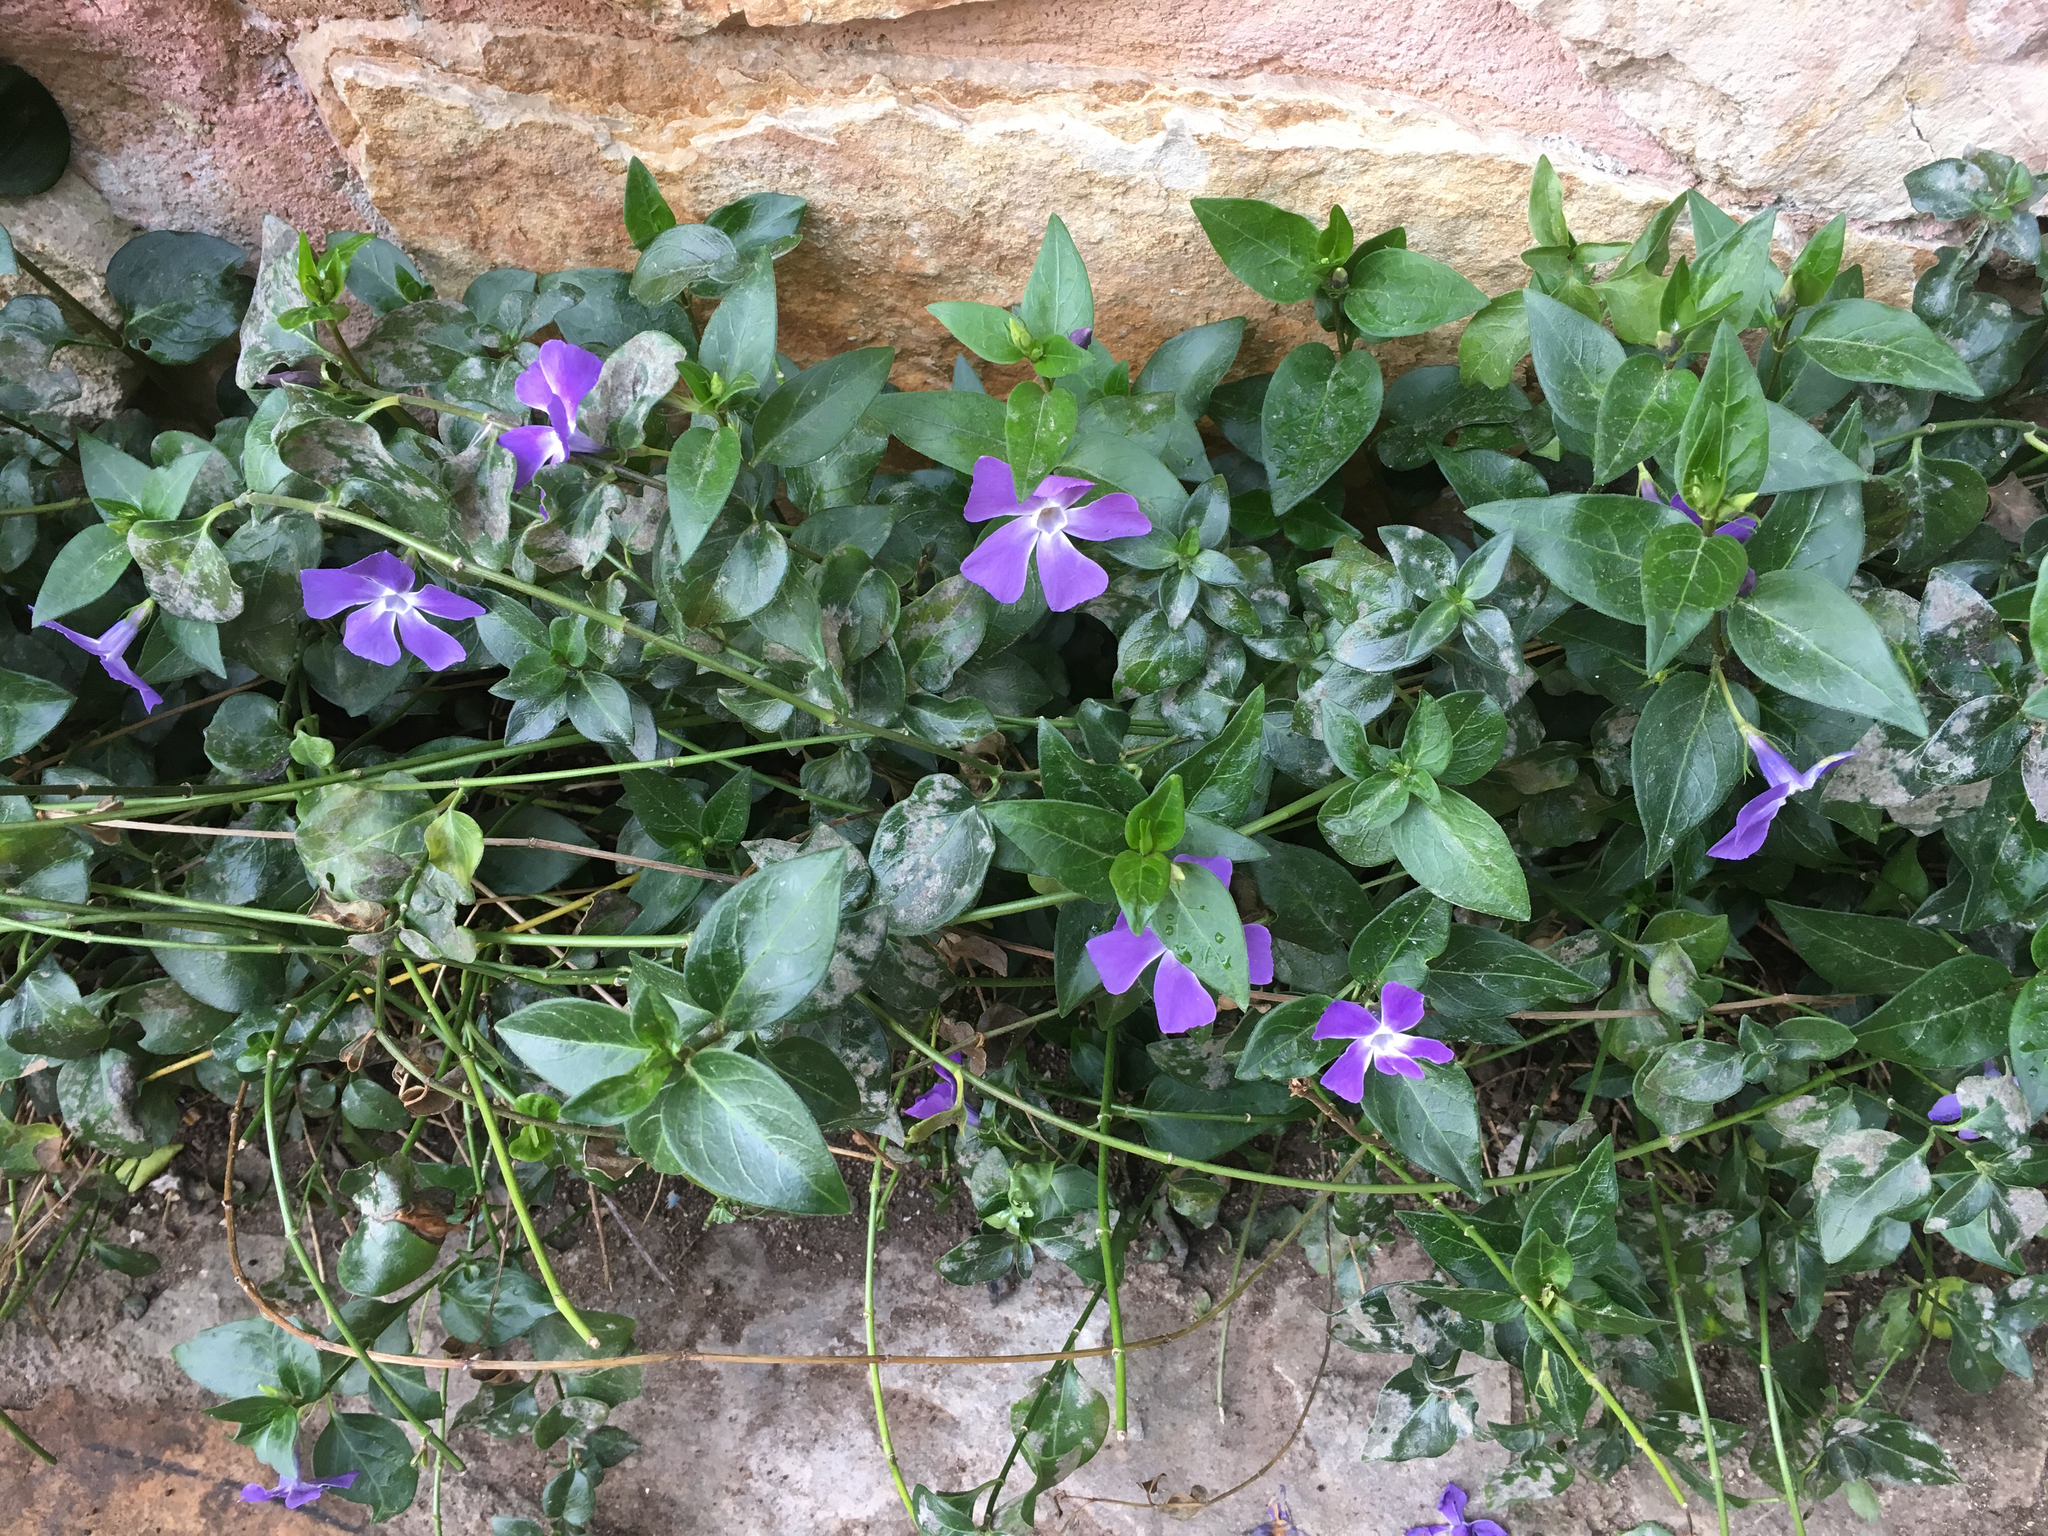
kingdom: Plantae
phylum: Tracheophyta
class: Magnoliopsida
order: Gentianales
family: Apocynaceae
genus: Vinca
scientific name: Vinca major
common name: Greater periwinkle
